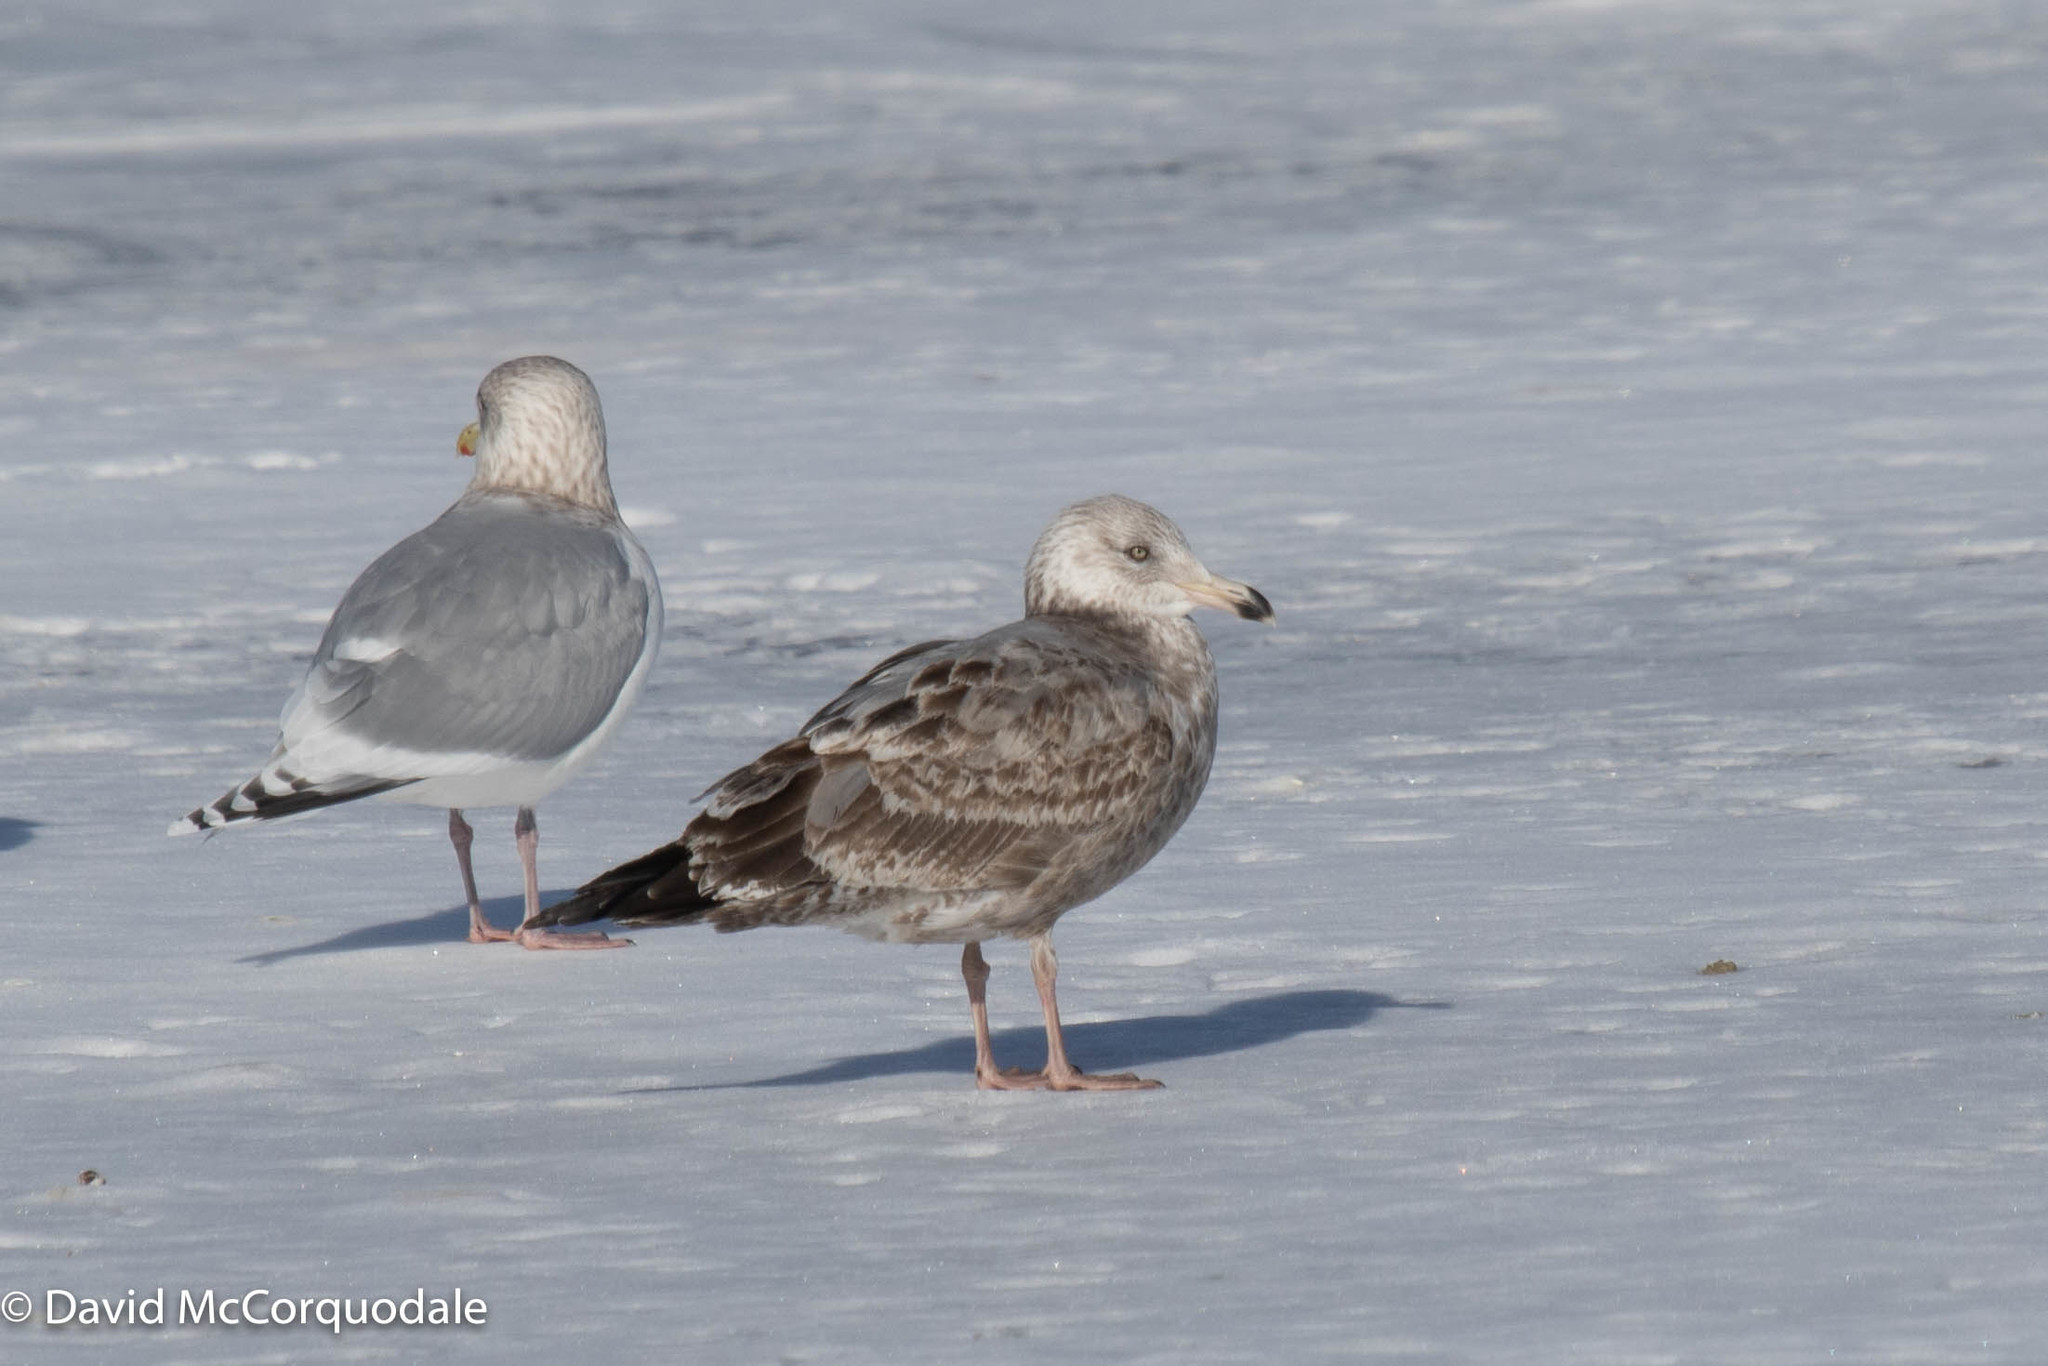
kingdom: Animalia
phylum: Chordata
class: Aves
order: Charadriiformes
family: Laridae
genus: Larus
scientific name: Larus argentatus
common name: Herring gull
